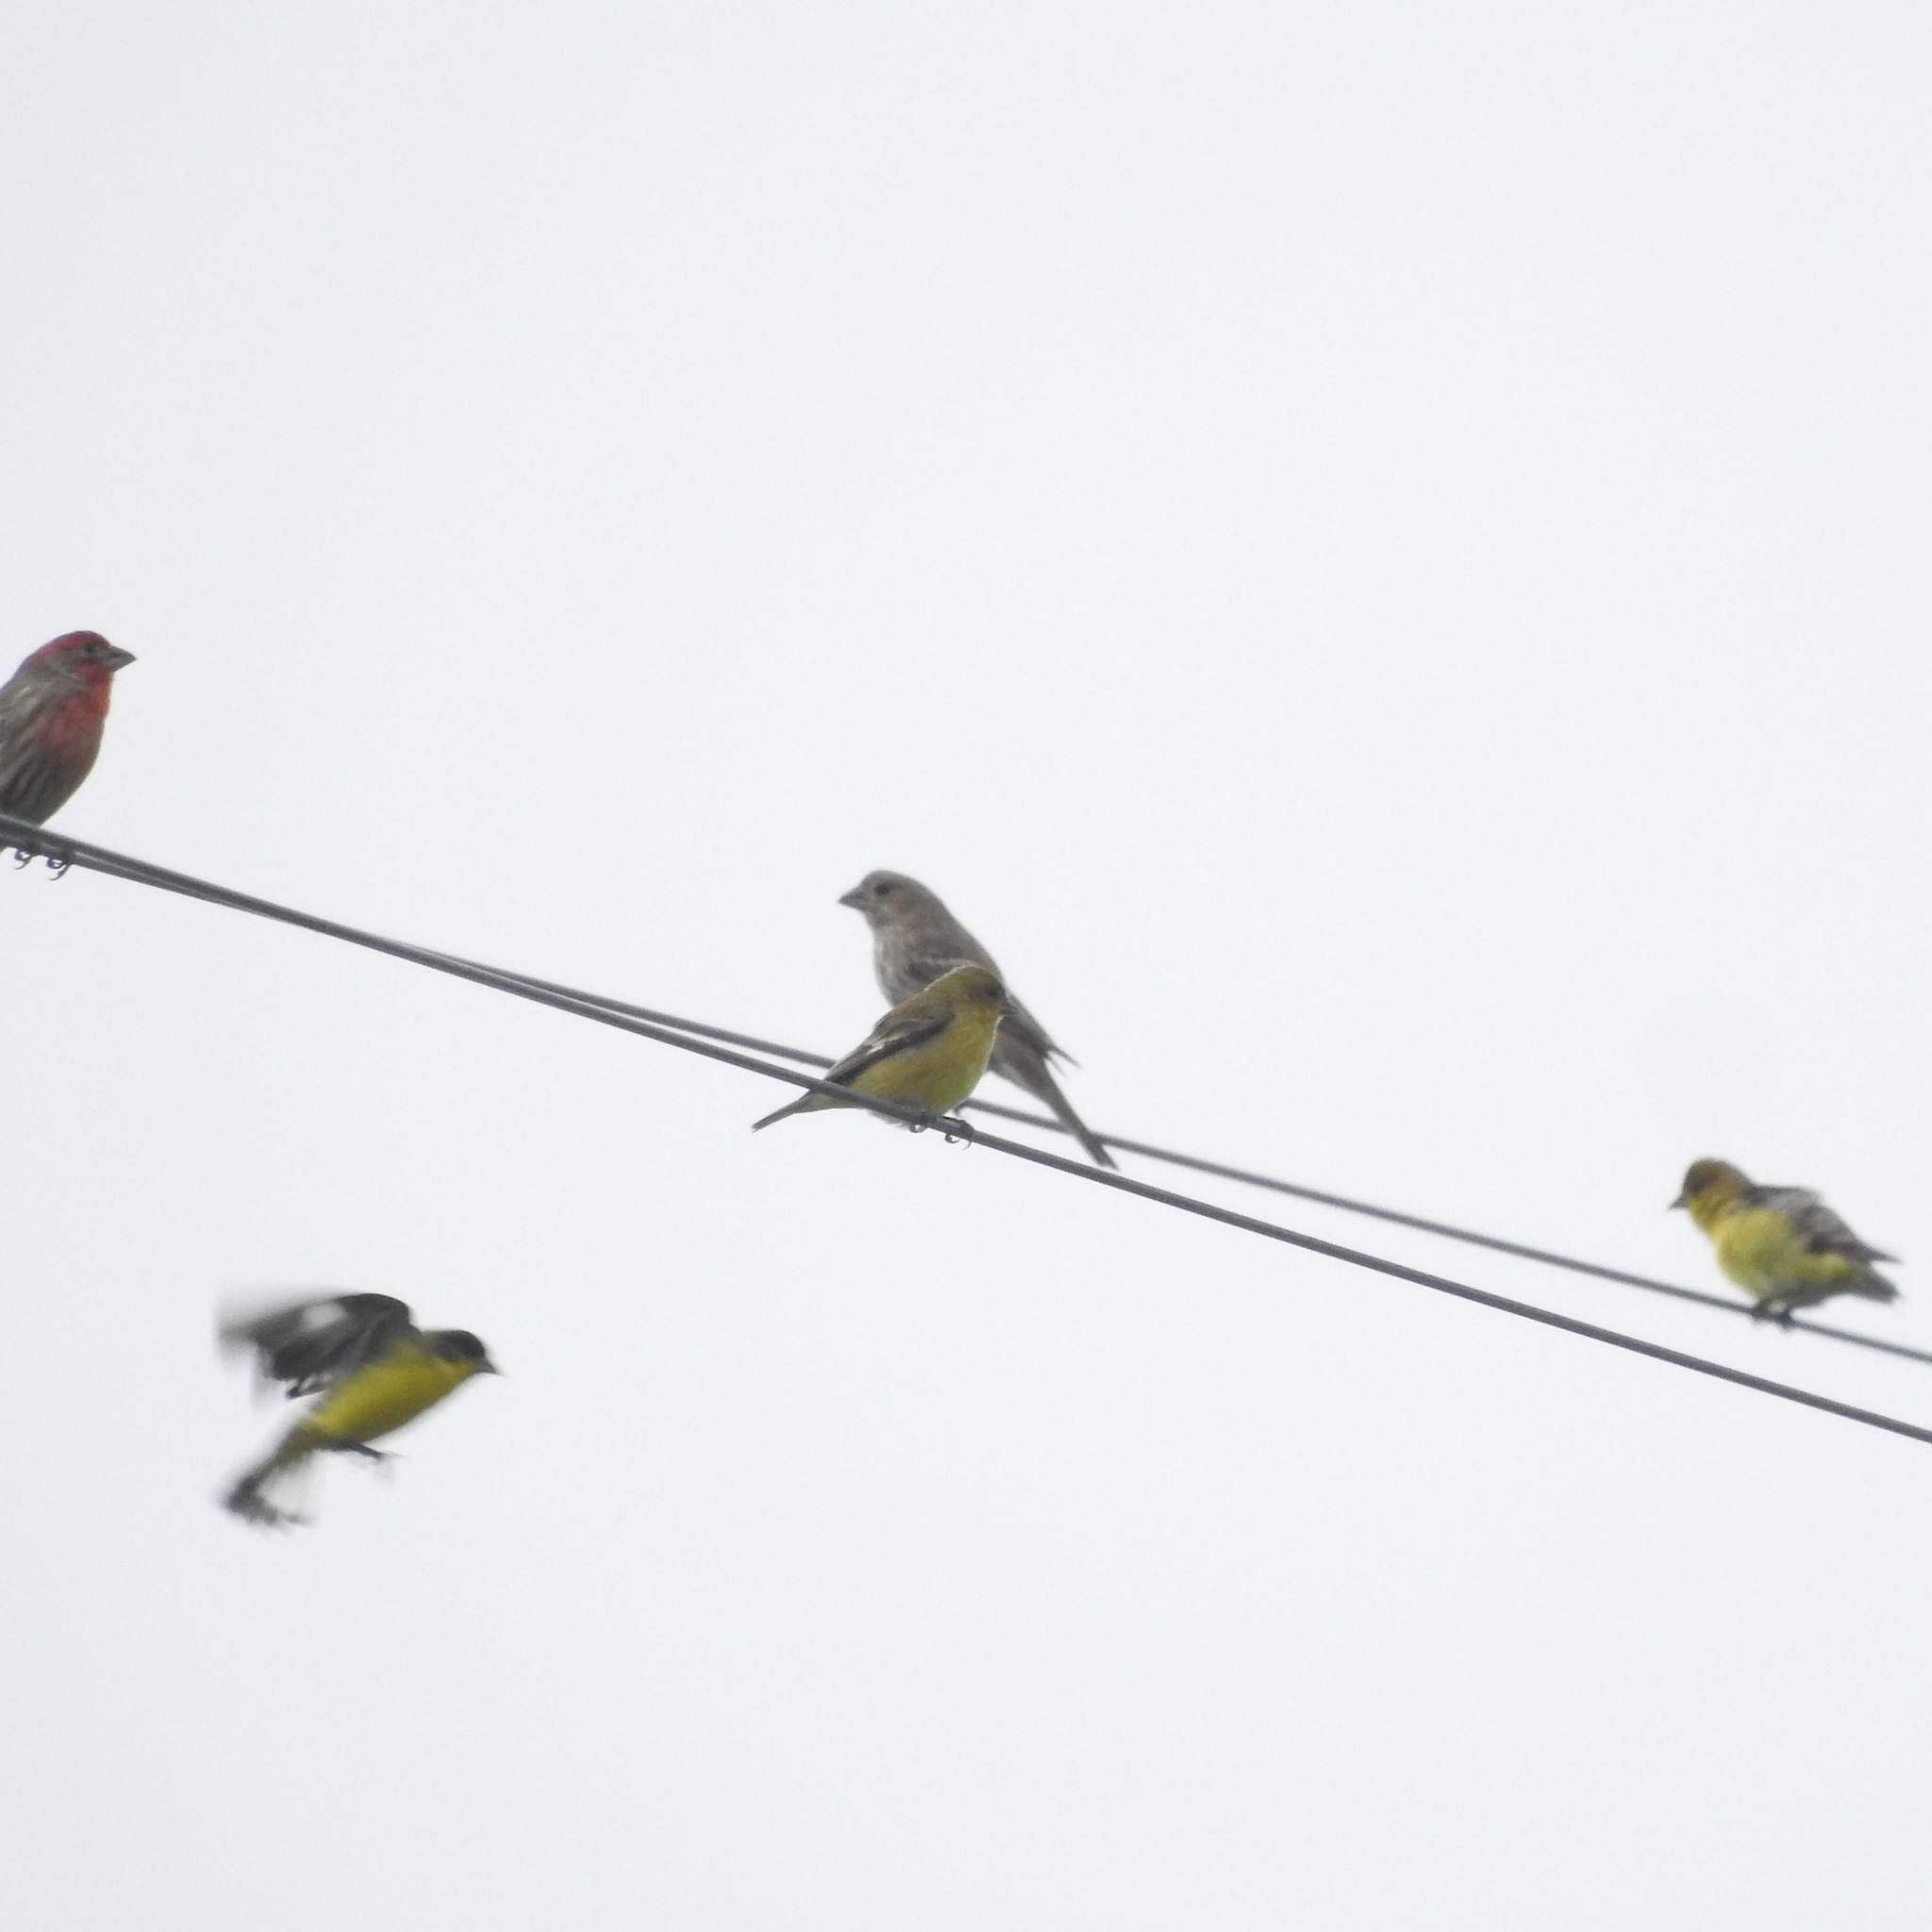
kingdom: Animalia
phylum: Chordata
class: Aves
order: Passeriformes
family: Fringillidae
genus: Spinus
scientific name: Spinus psaltria
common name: Lesser goldfinch
